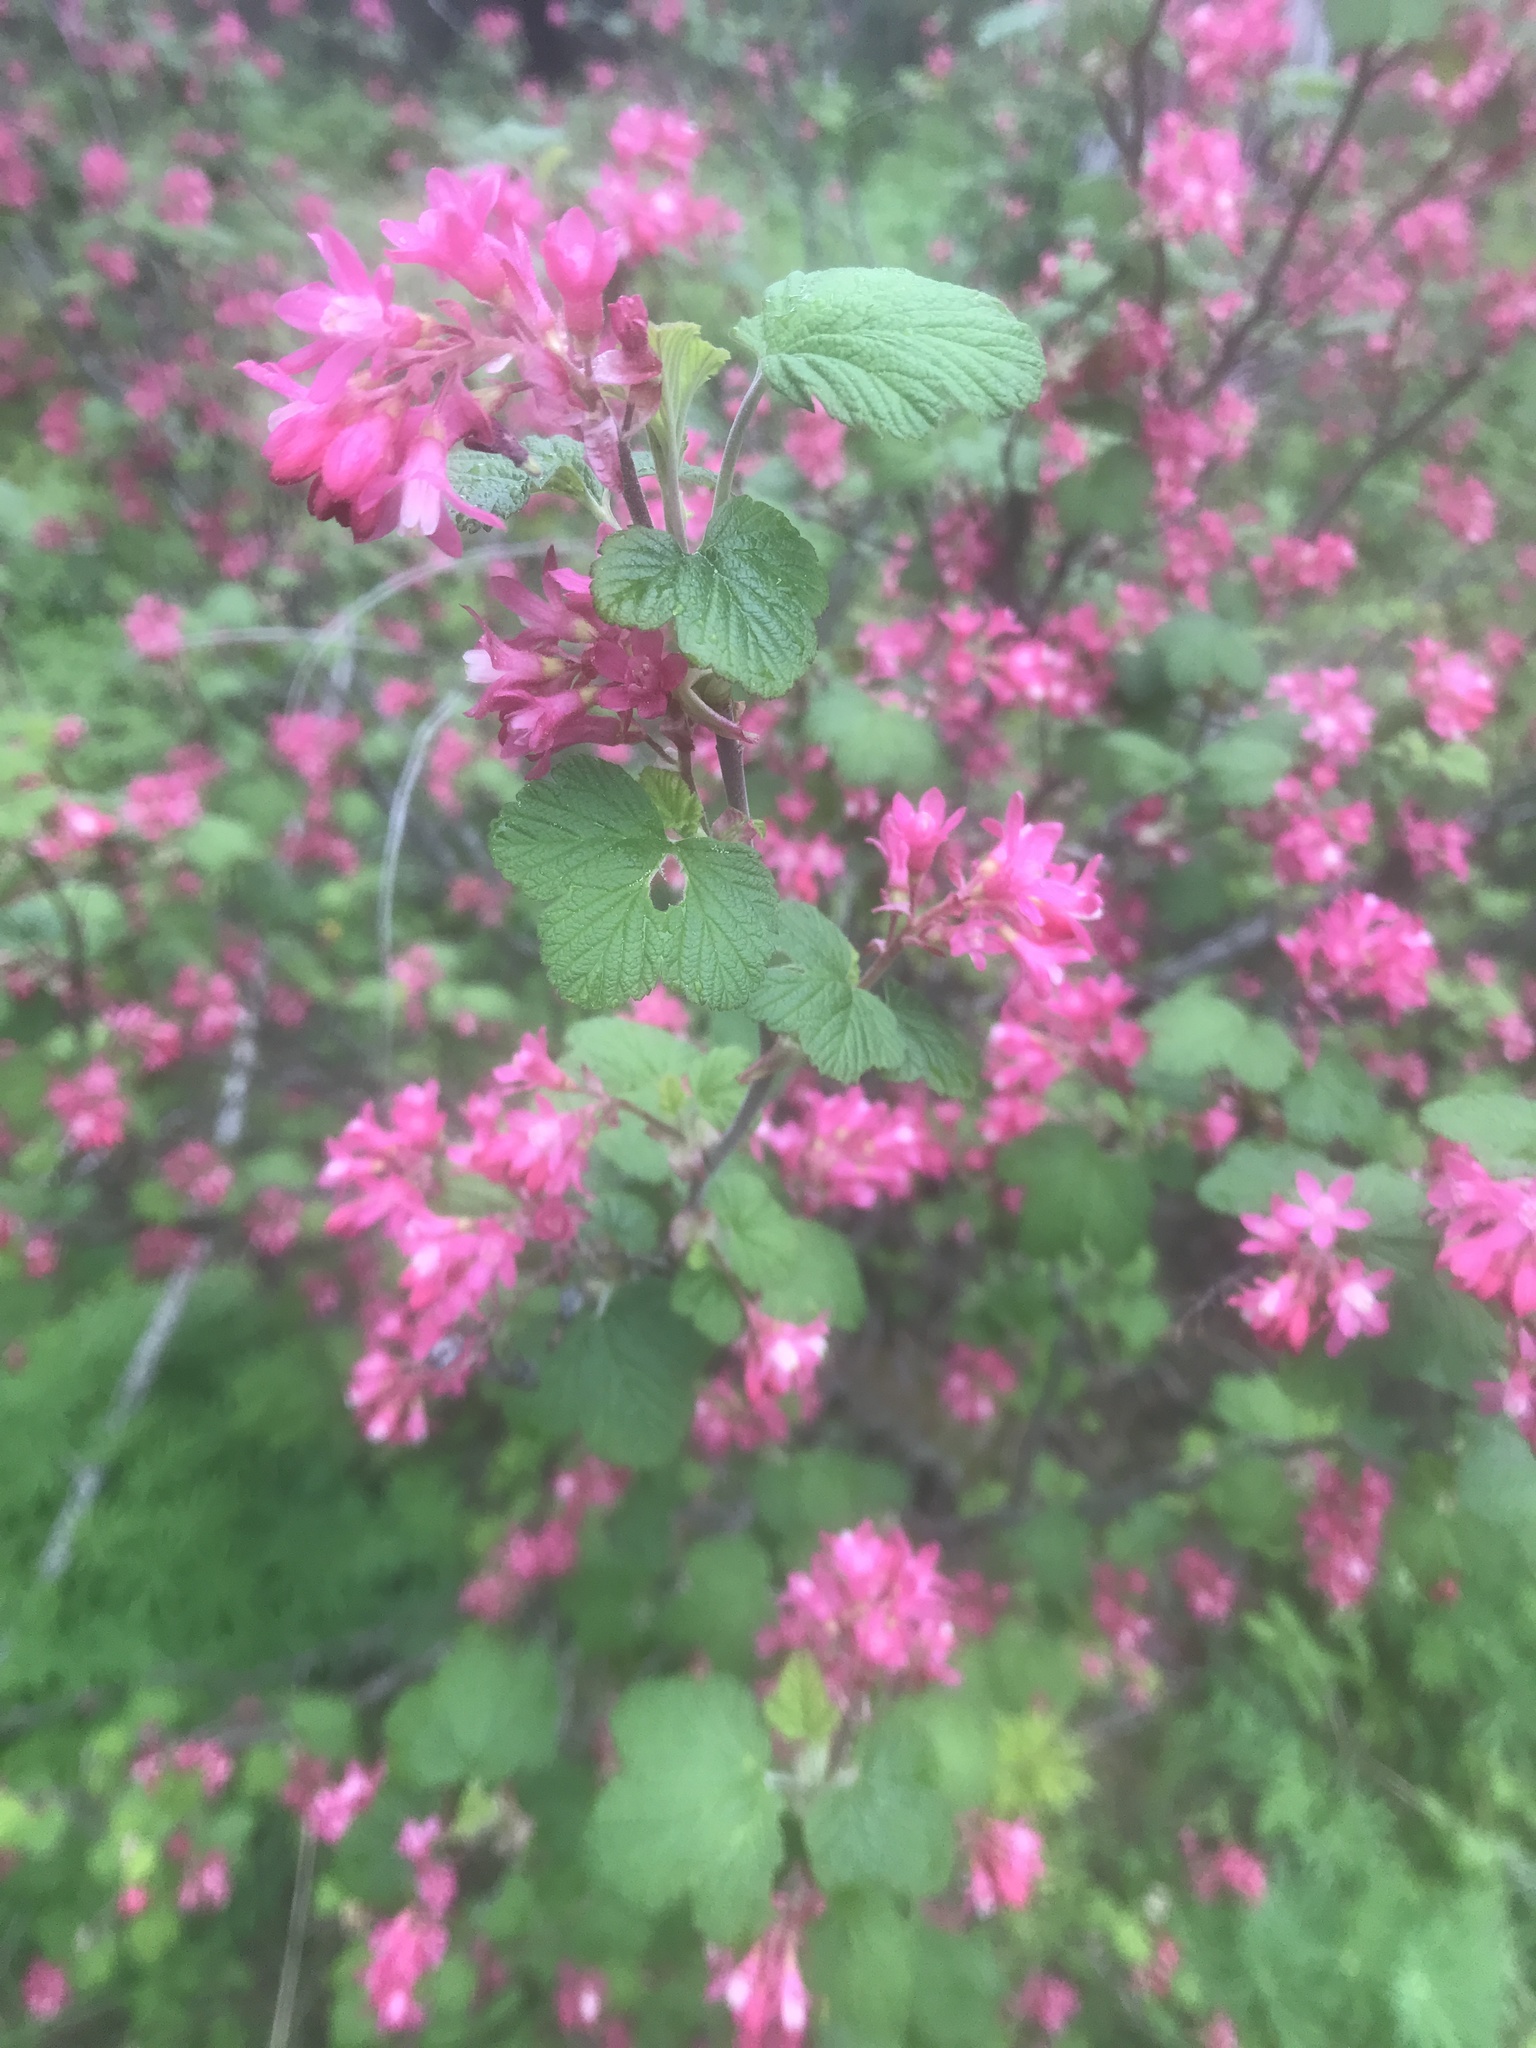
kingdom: Plantae
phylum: Tracheophyta
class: Magnoliopsida
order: Saxifragales
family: Grossulariaceae
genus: Ribes
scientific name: Ribes sanguineum
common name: Flowering currant
